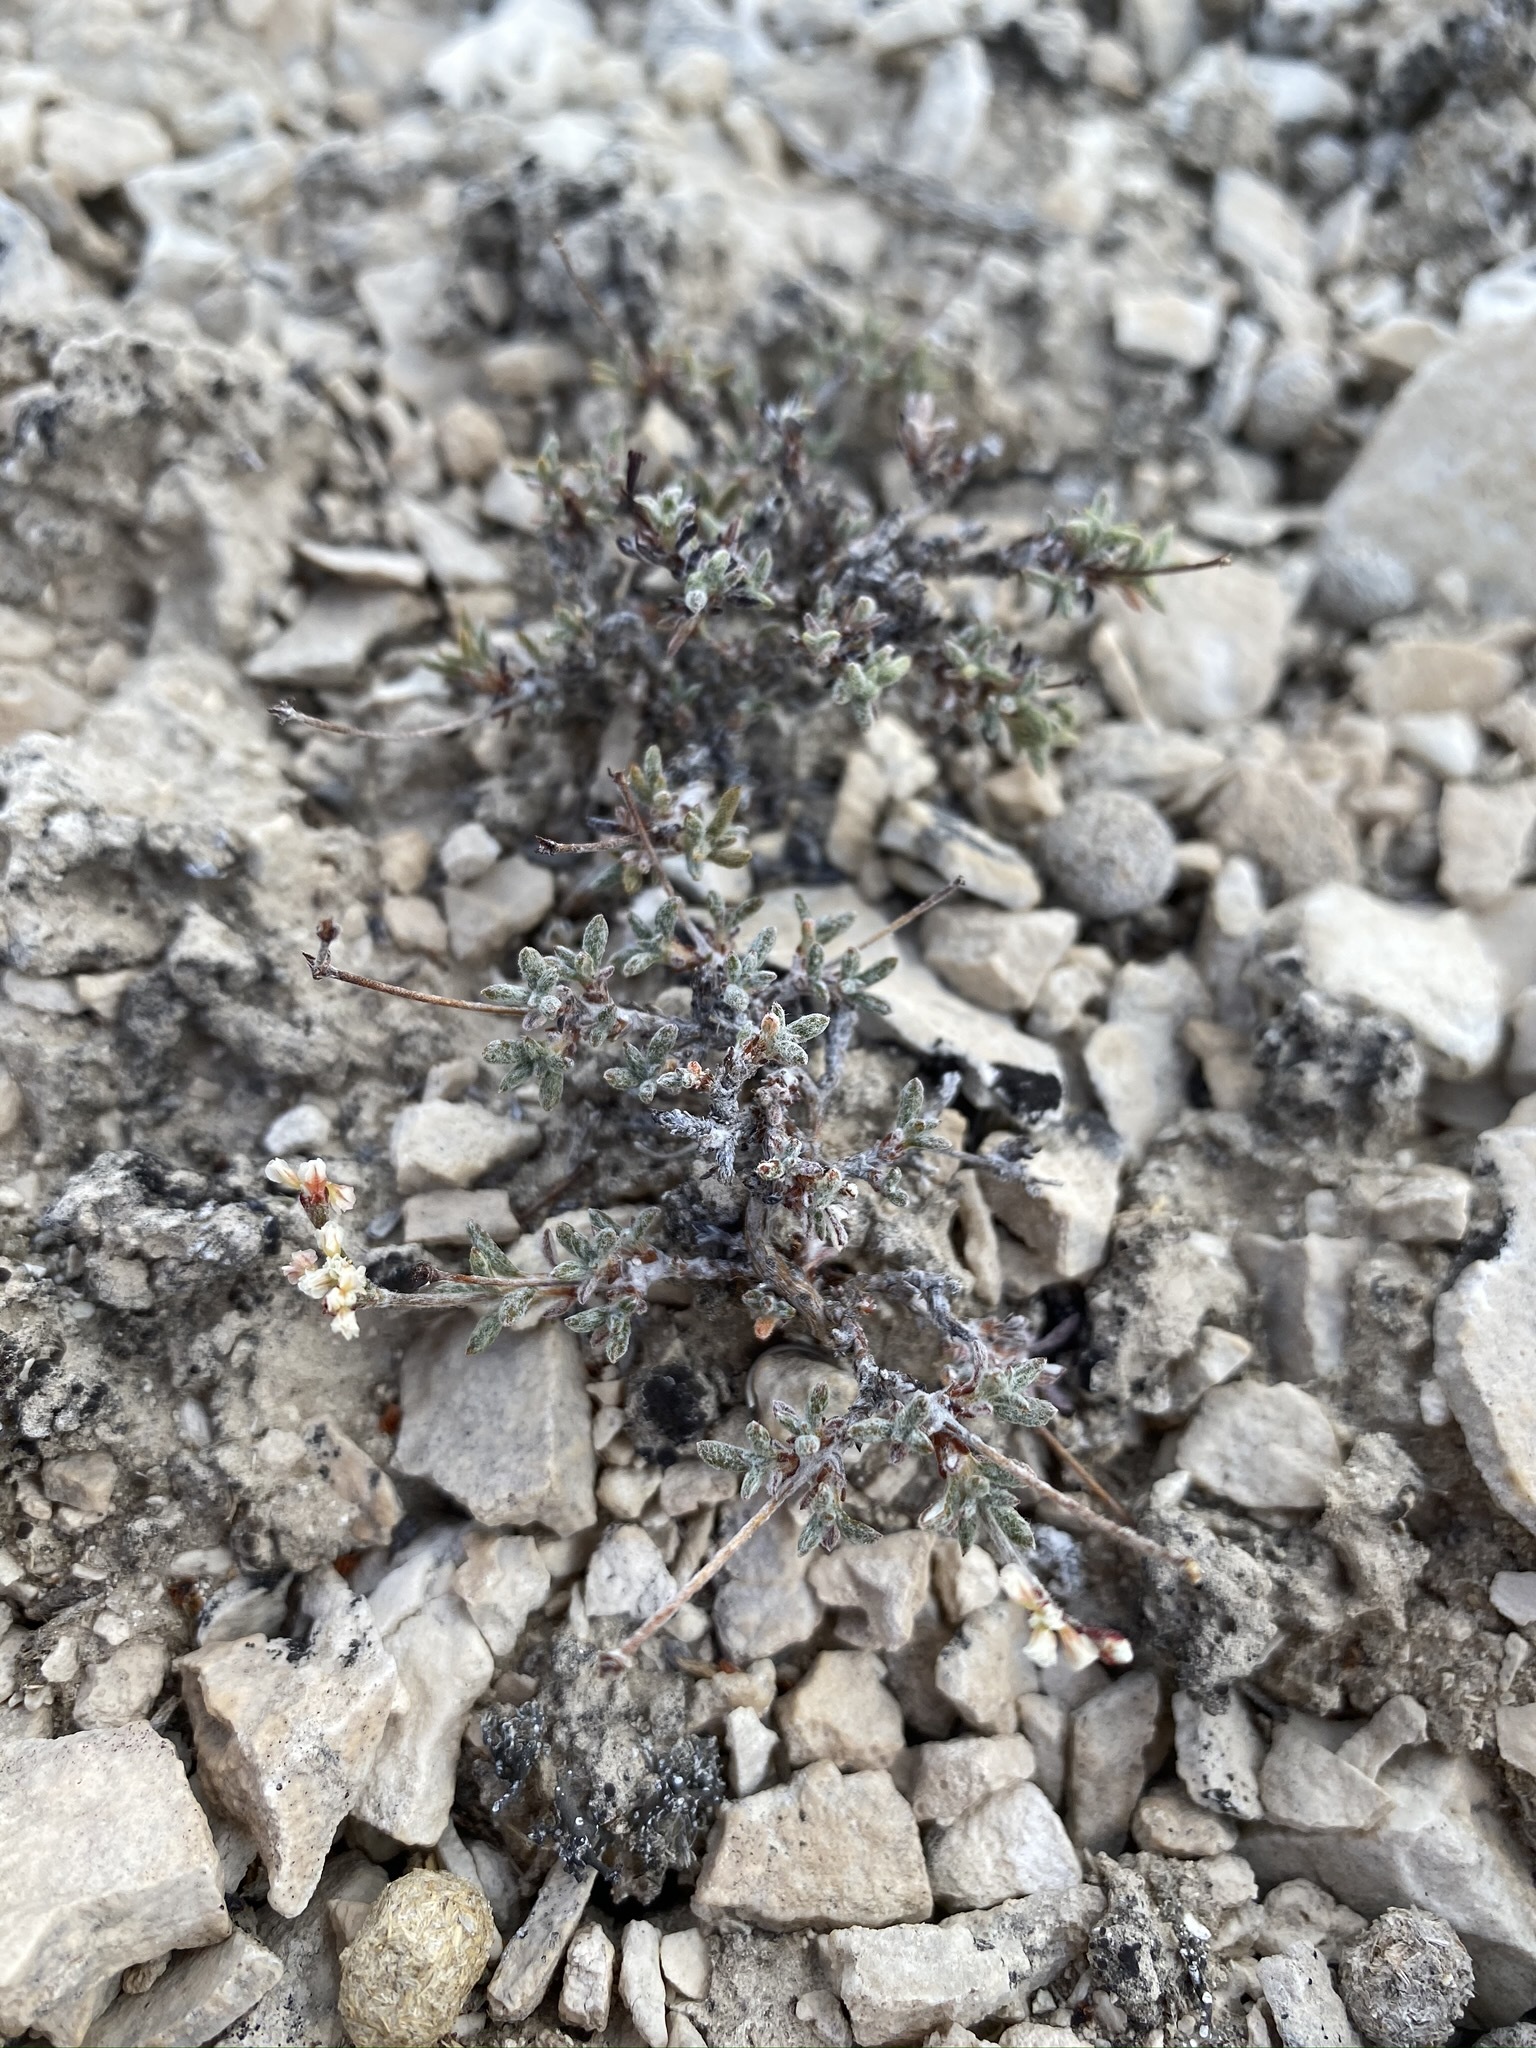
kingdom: Plantae
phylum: Tracheophyta
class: Magnoliopsida
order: Caryophyllales
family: Polygonaceae
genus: Eriogonum
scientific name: Eriogonum microtheca
